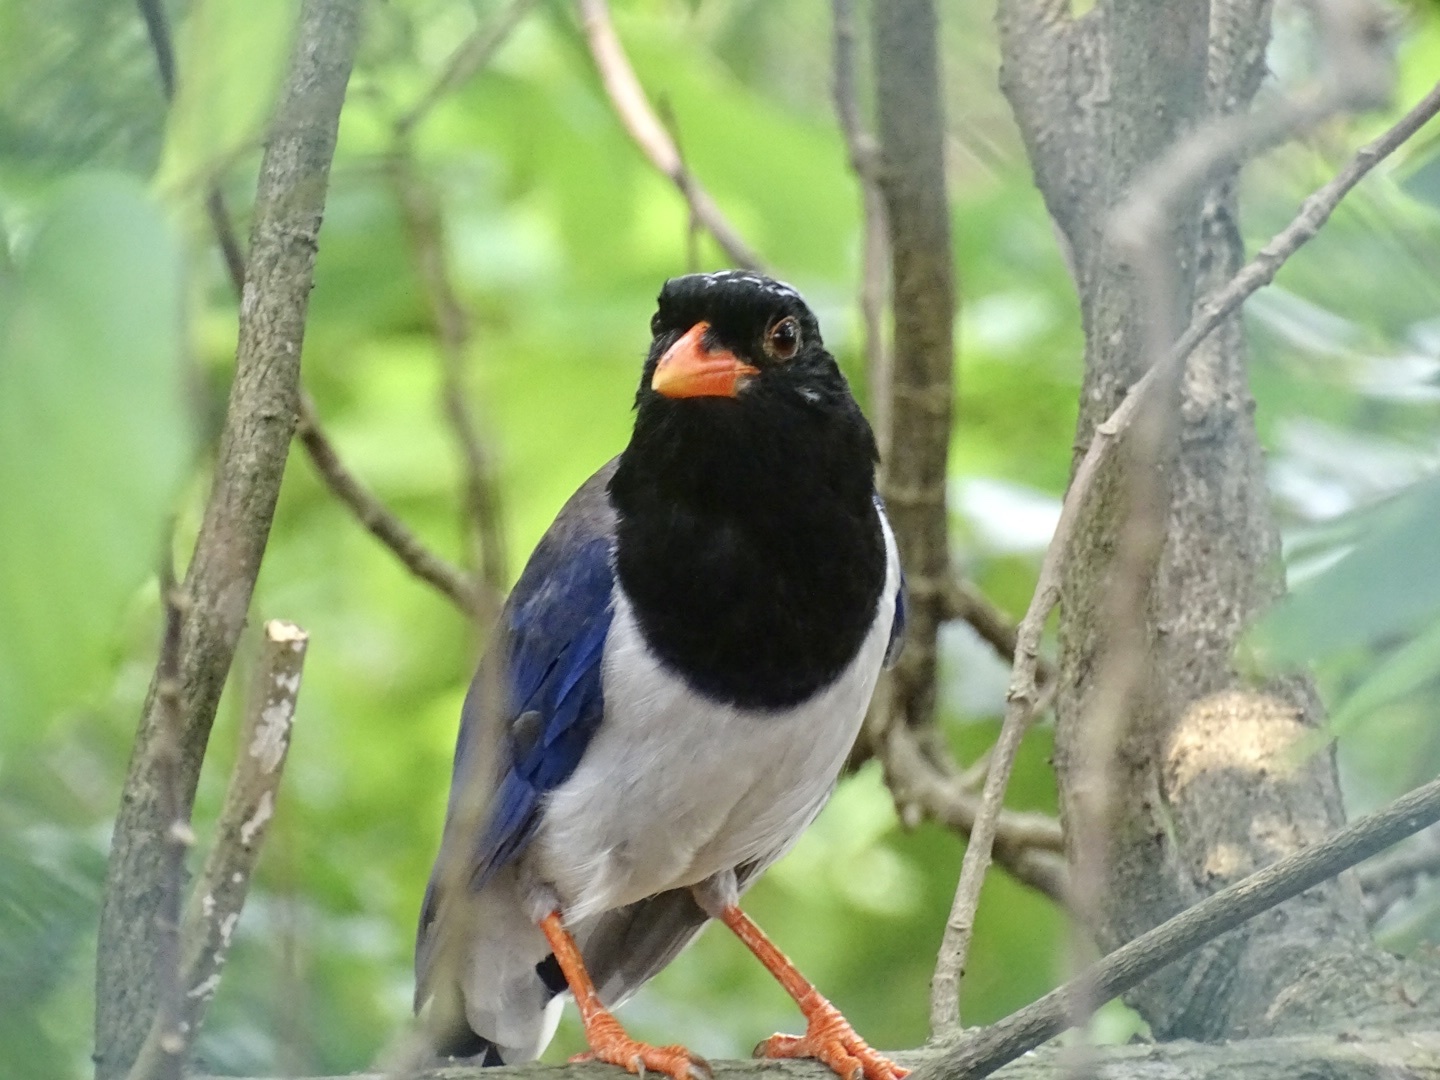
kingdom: Animalia
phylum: Chordata
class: Aves
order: Passeriformes
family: Corvidae
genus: Urocissa
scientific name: Urocissa erythroryncha
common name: Red-billed blue magpie
